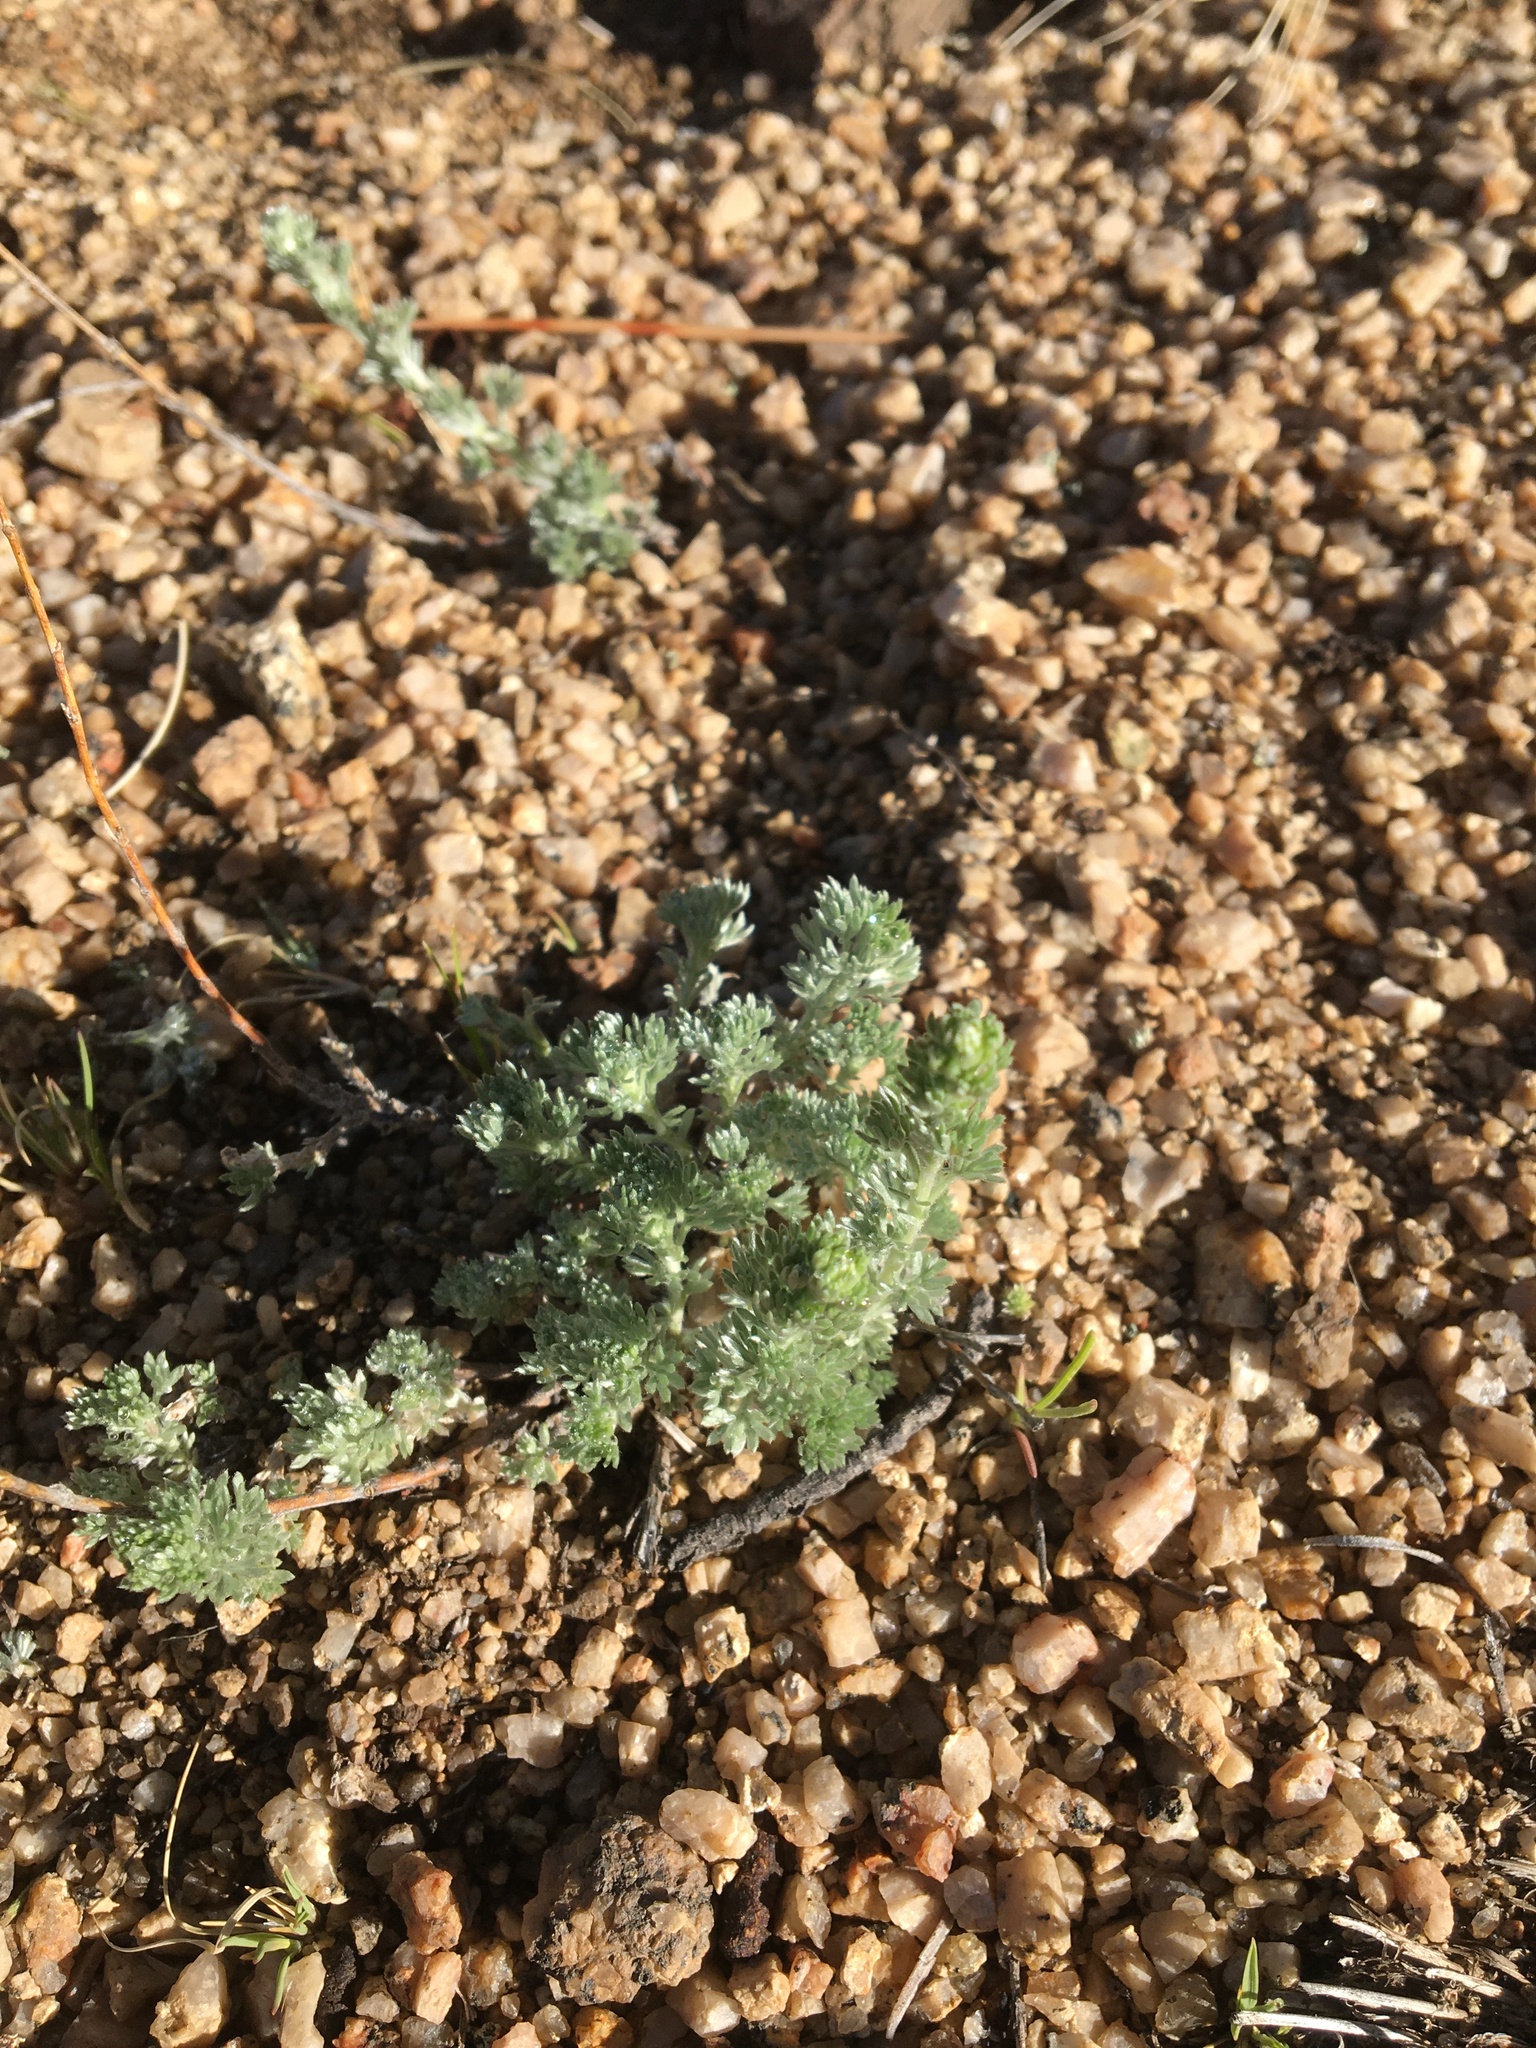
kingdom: Plantae
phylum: Tracheophyta
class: Magnoliopsida
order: Asterales
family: Asteraceae
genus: Artemisia
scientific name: Artemisia frigida
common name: Prairie sagewort
